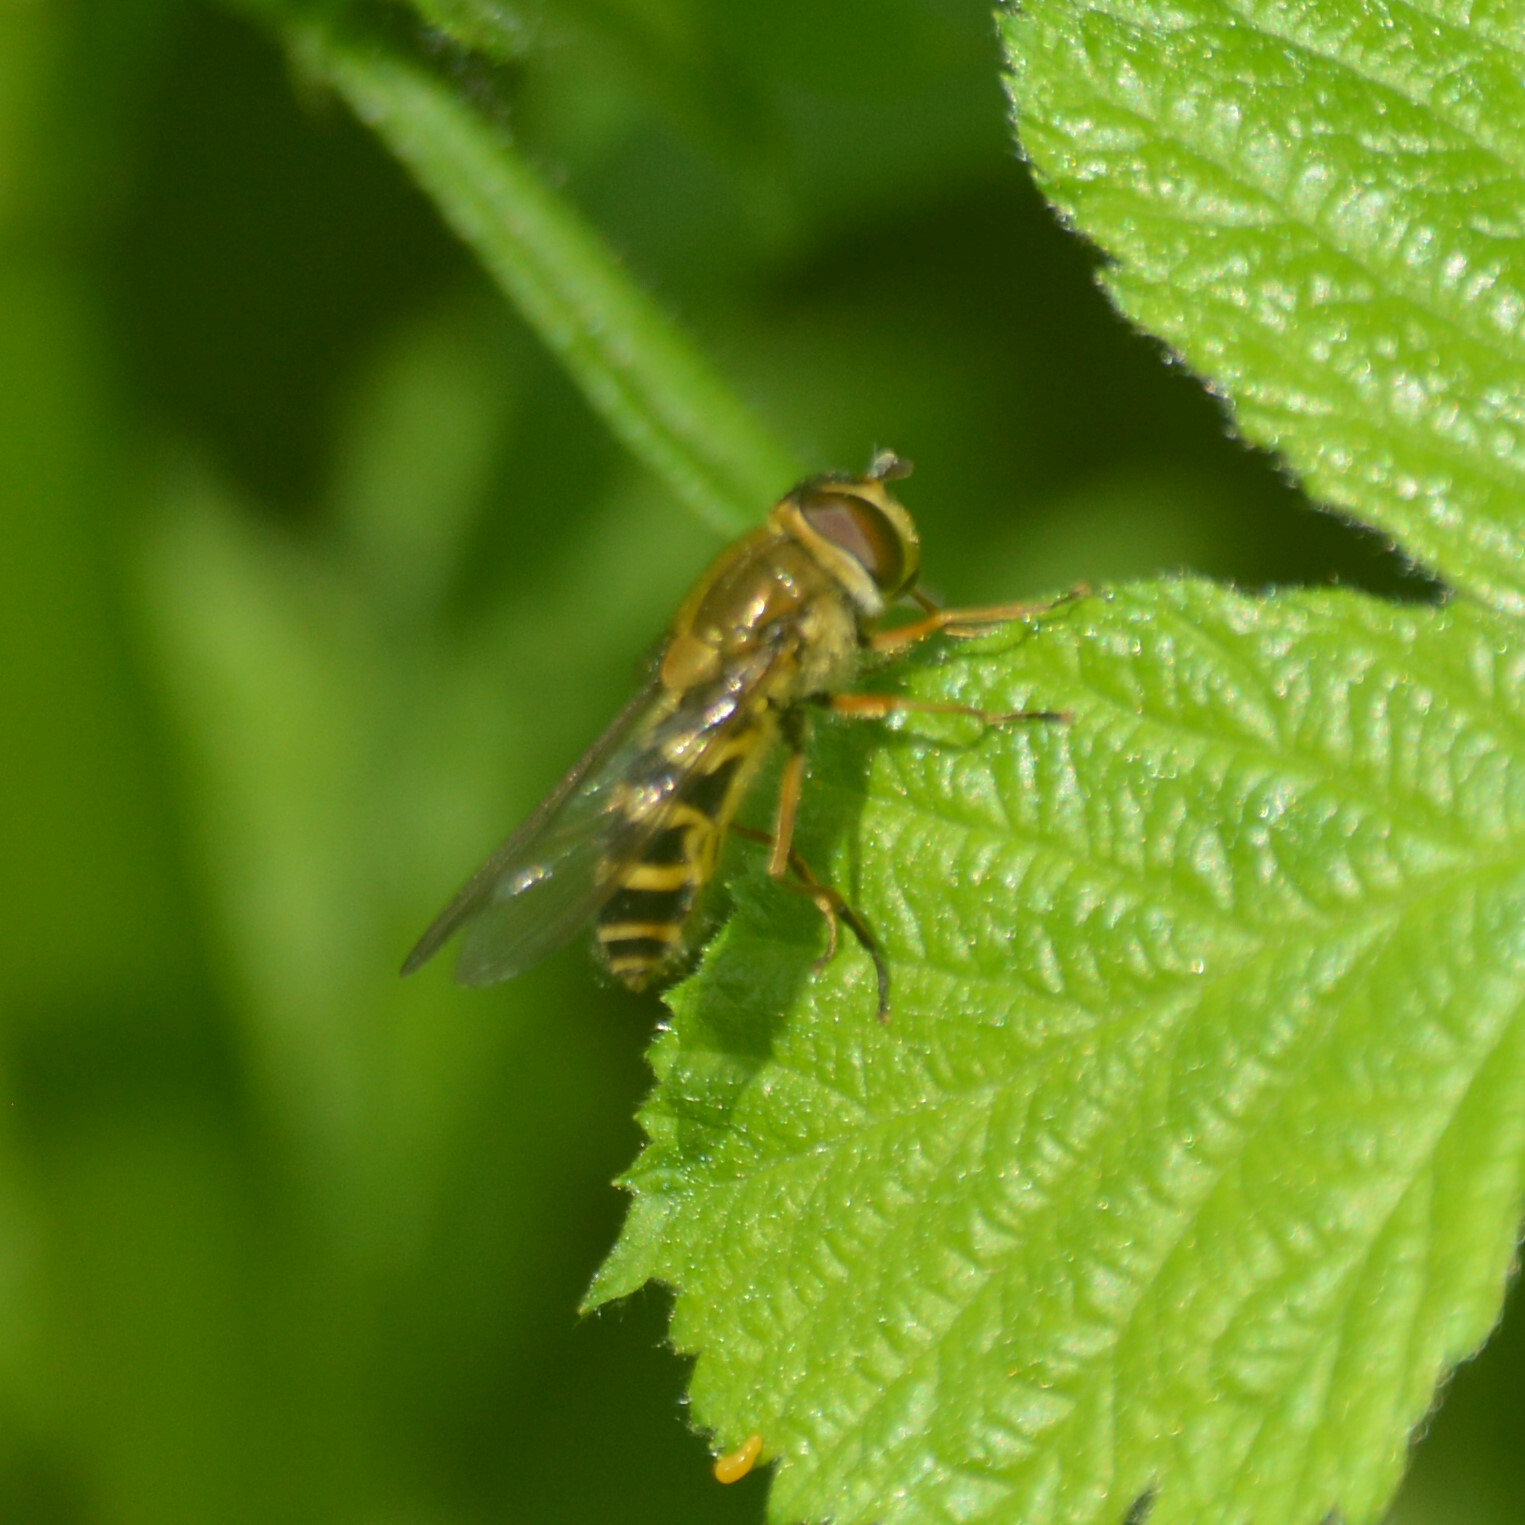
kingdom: Animalia
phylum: Arthropoda
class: Insecta
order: Diptera
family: Syrphidae
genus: Syrphus
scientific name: Syrphus ribesii
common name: Common flower fly
